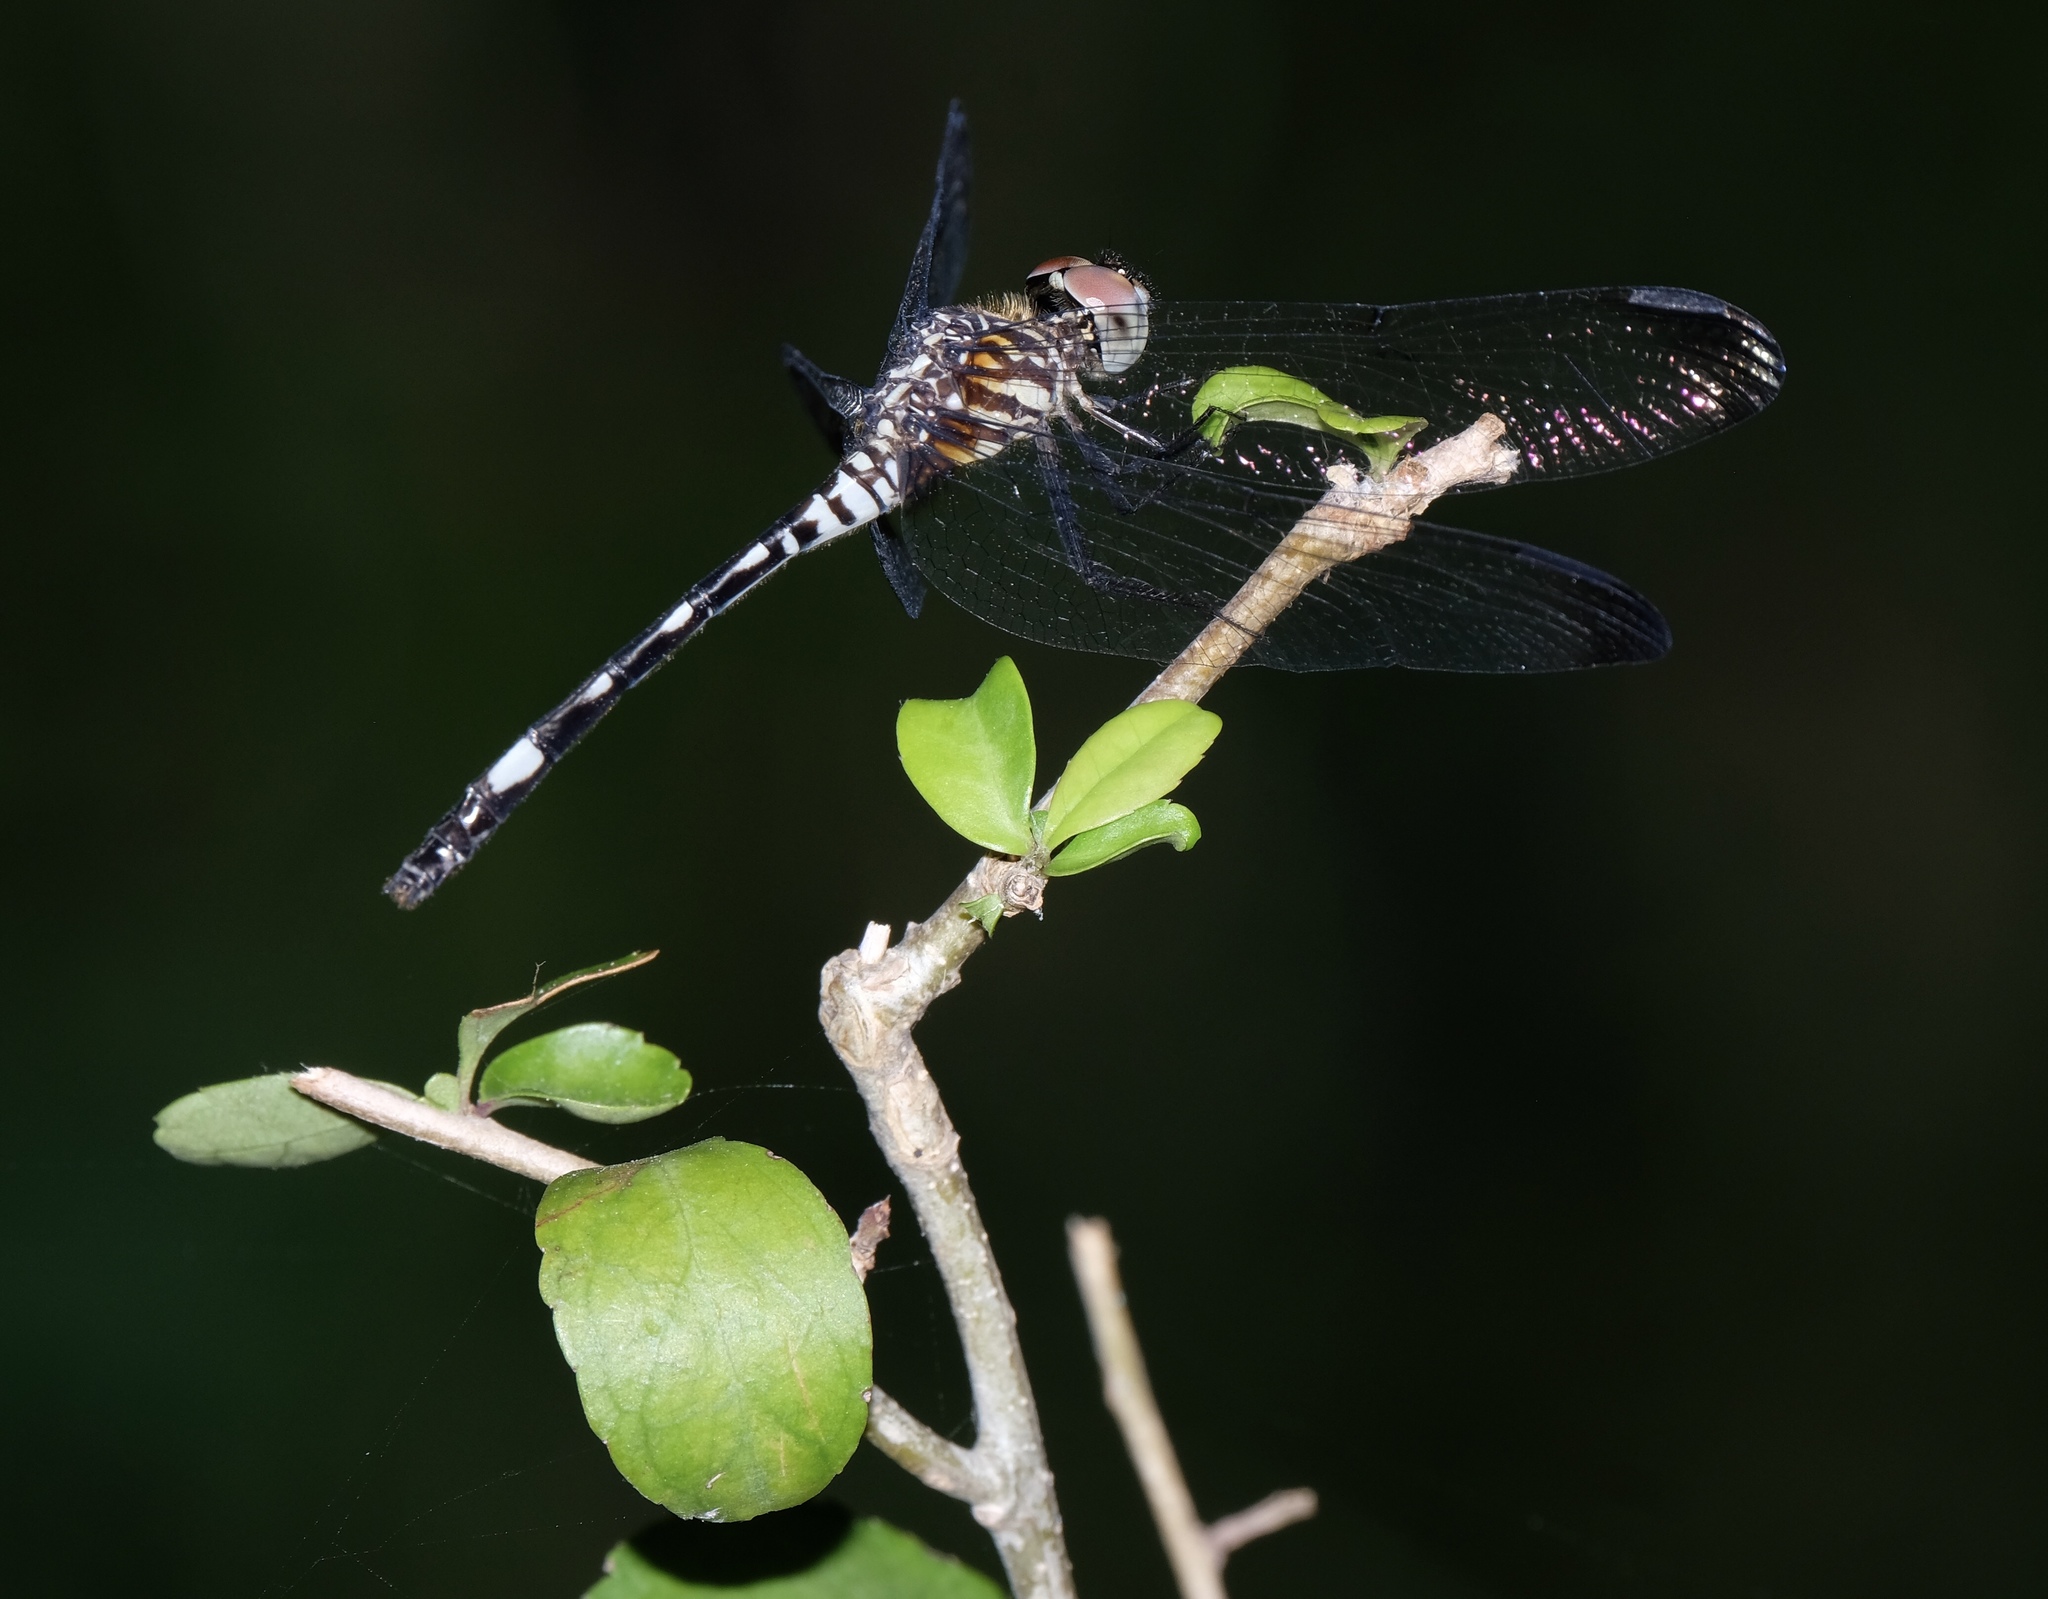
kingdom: Animalia
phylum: Arthropoda
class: Insecta
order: Odonata
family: Libellulidae
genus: Dythemis
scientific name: Dythemis velox
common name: Swift setwing
